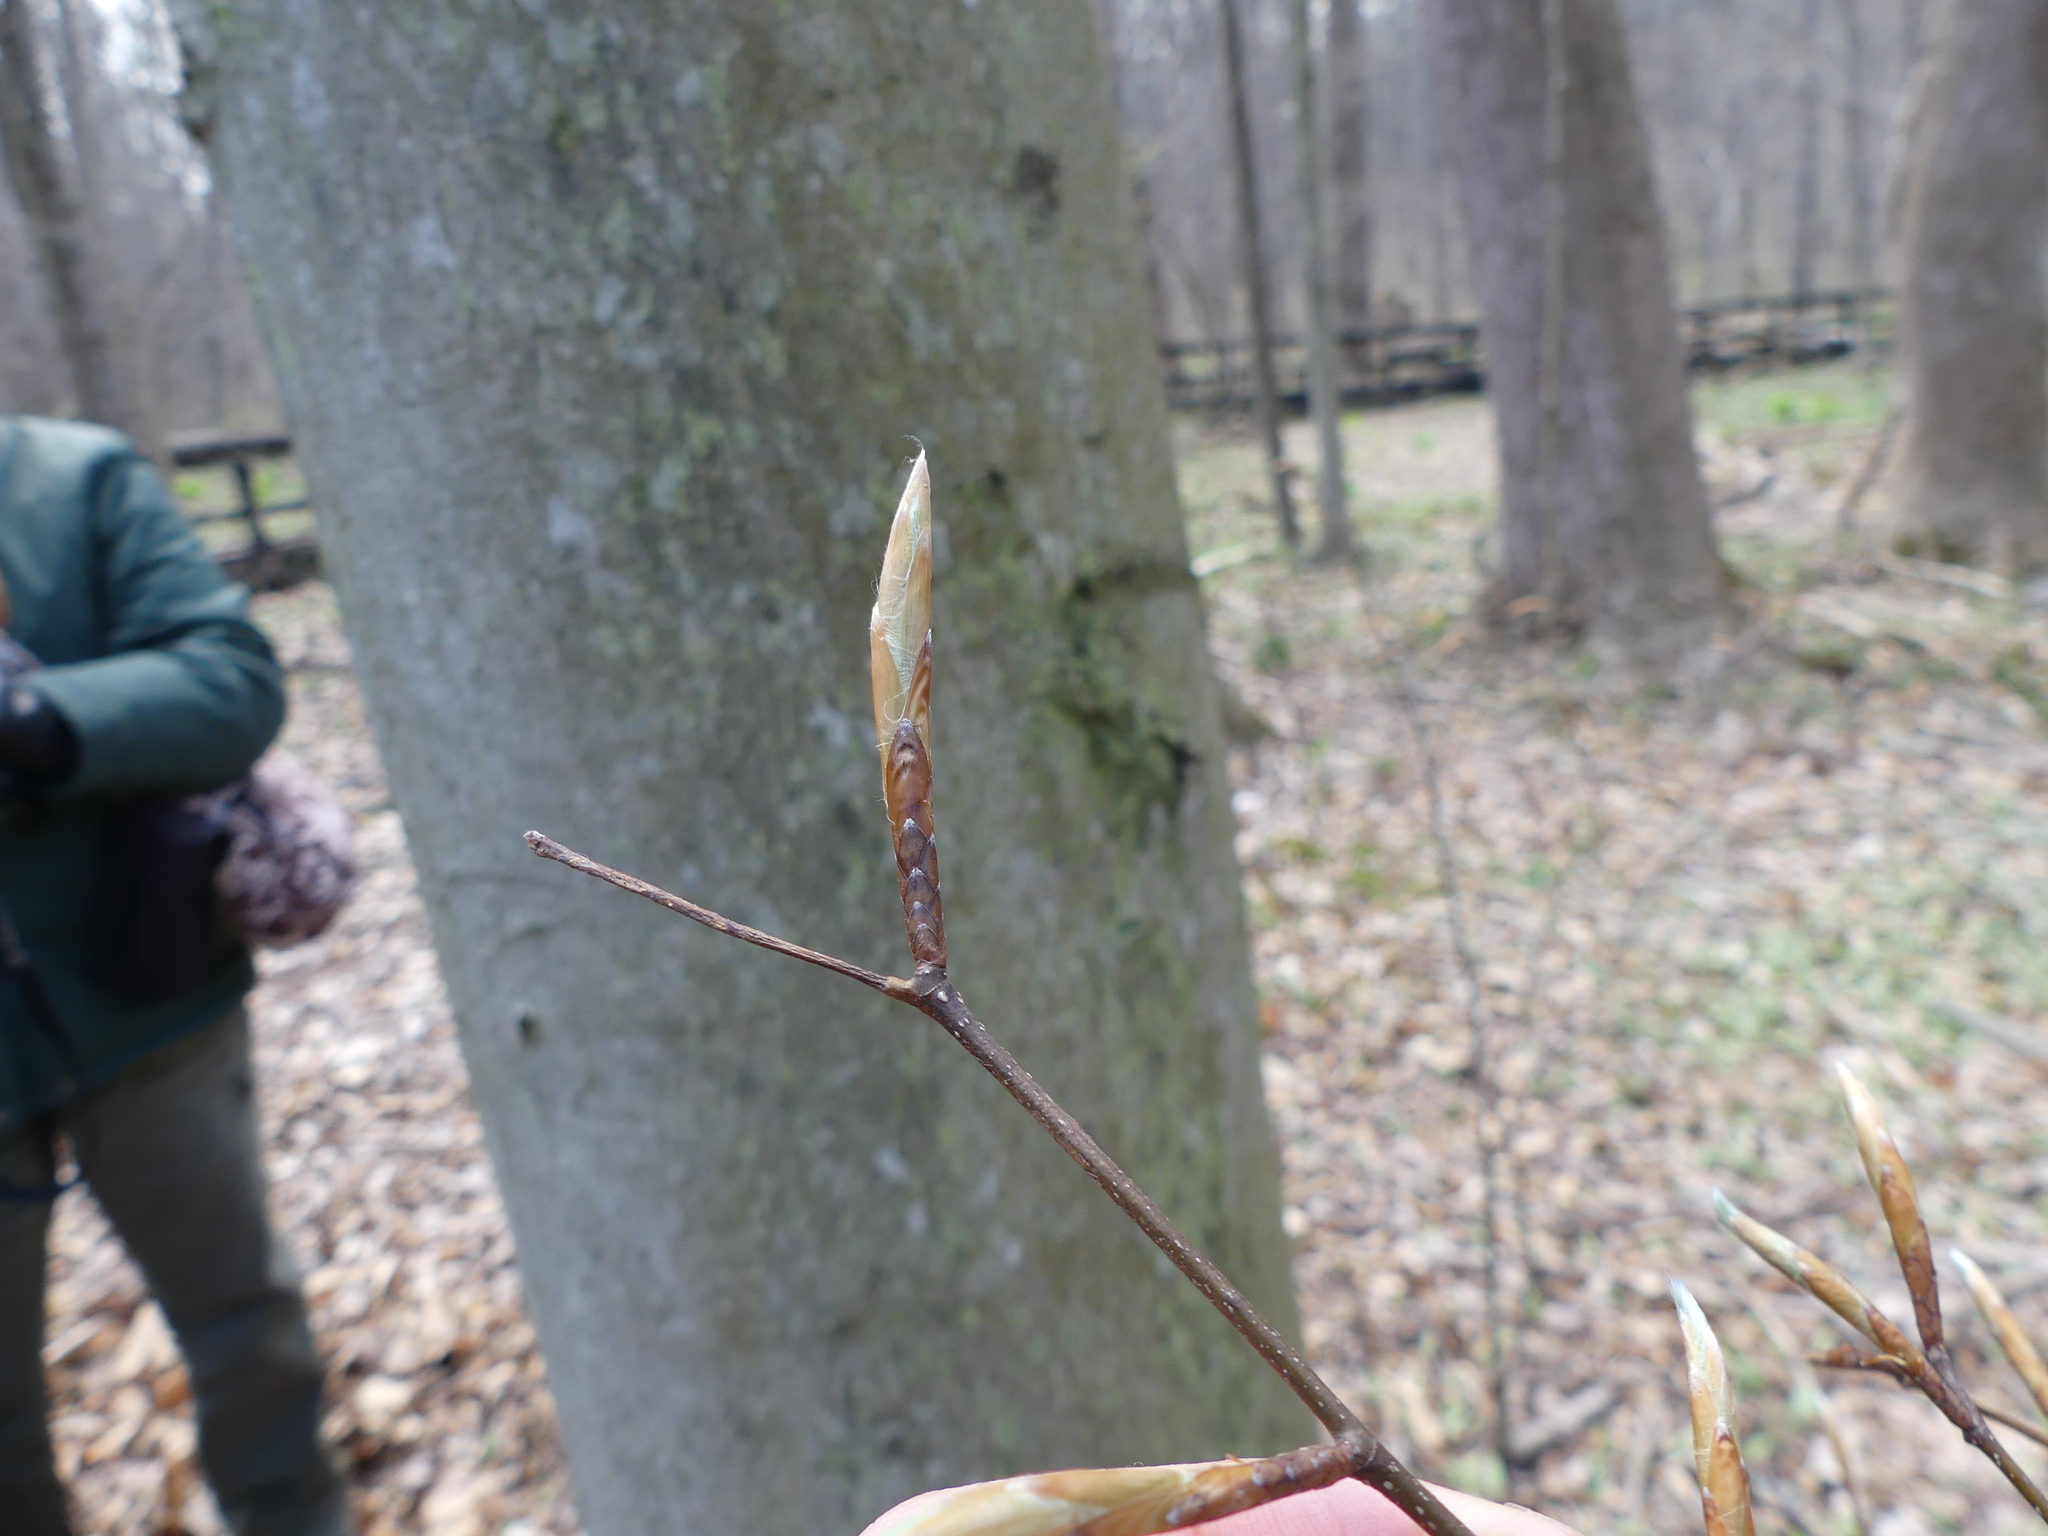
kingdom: Plantae
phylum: Tracheophyta
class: Magnoliopsida
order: Fagales
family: Fagaceae
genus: Fagus
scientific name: Fagus grandifolia
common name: American beech
